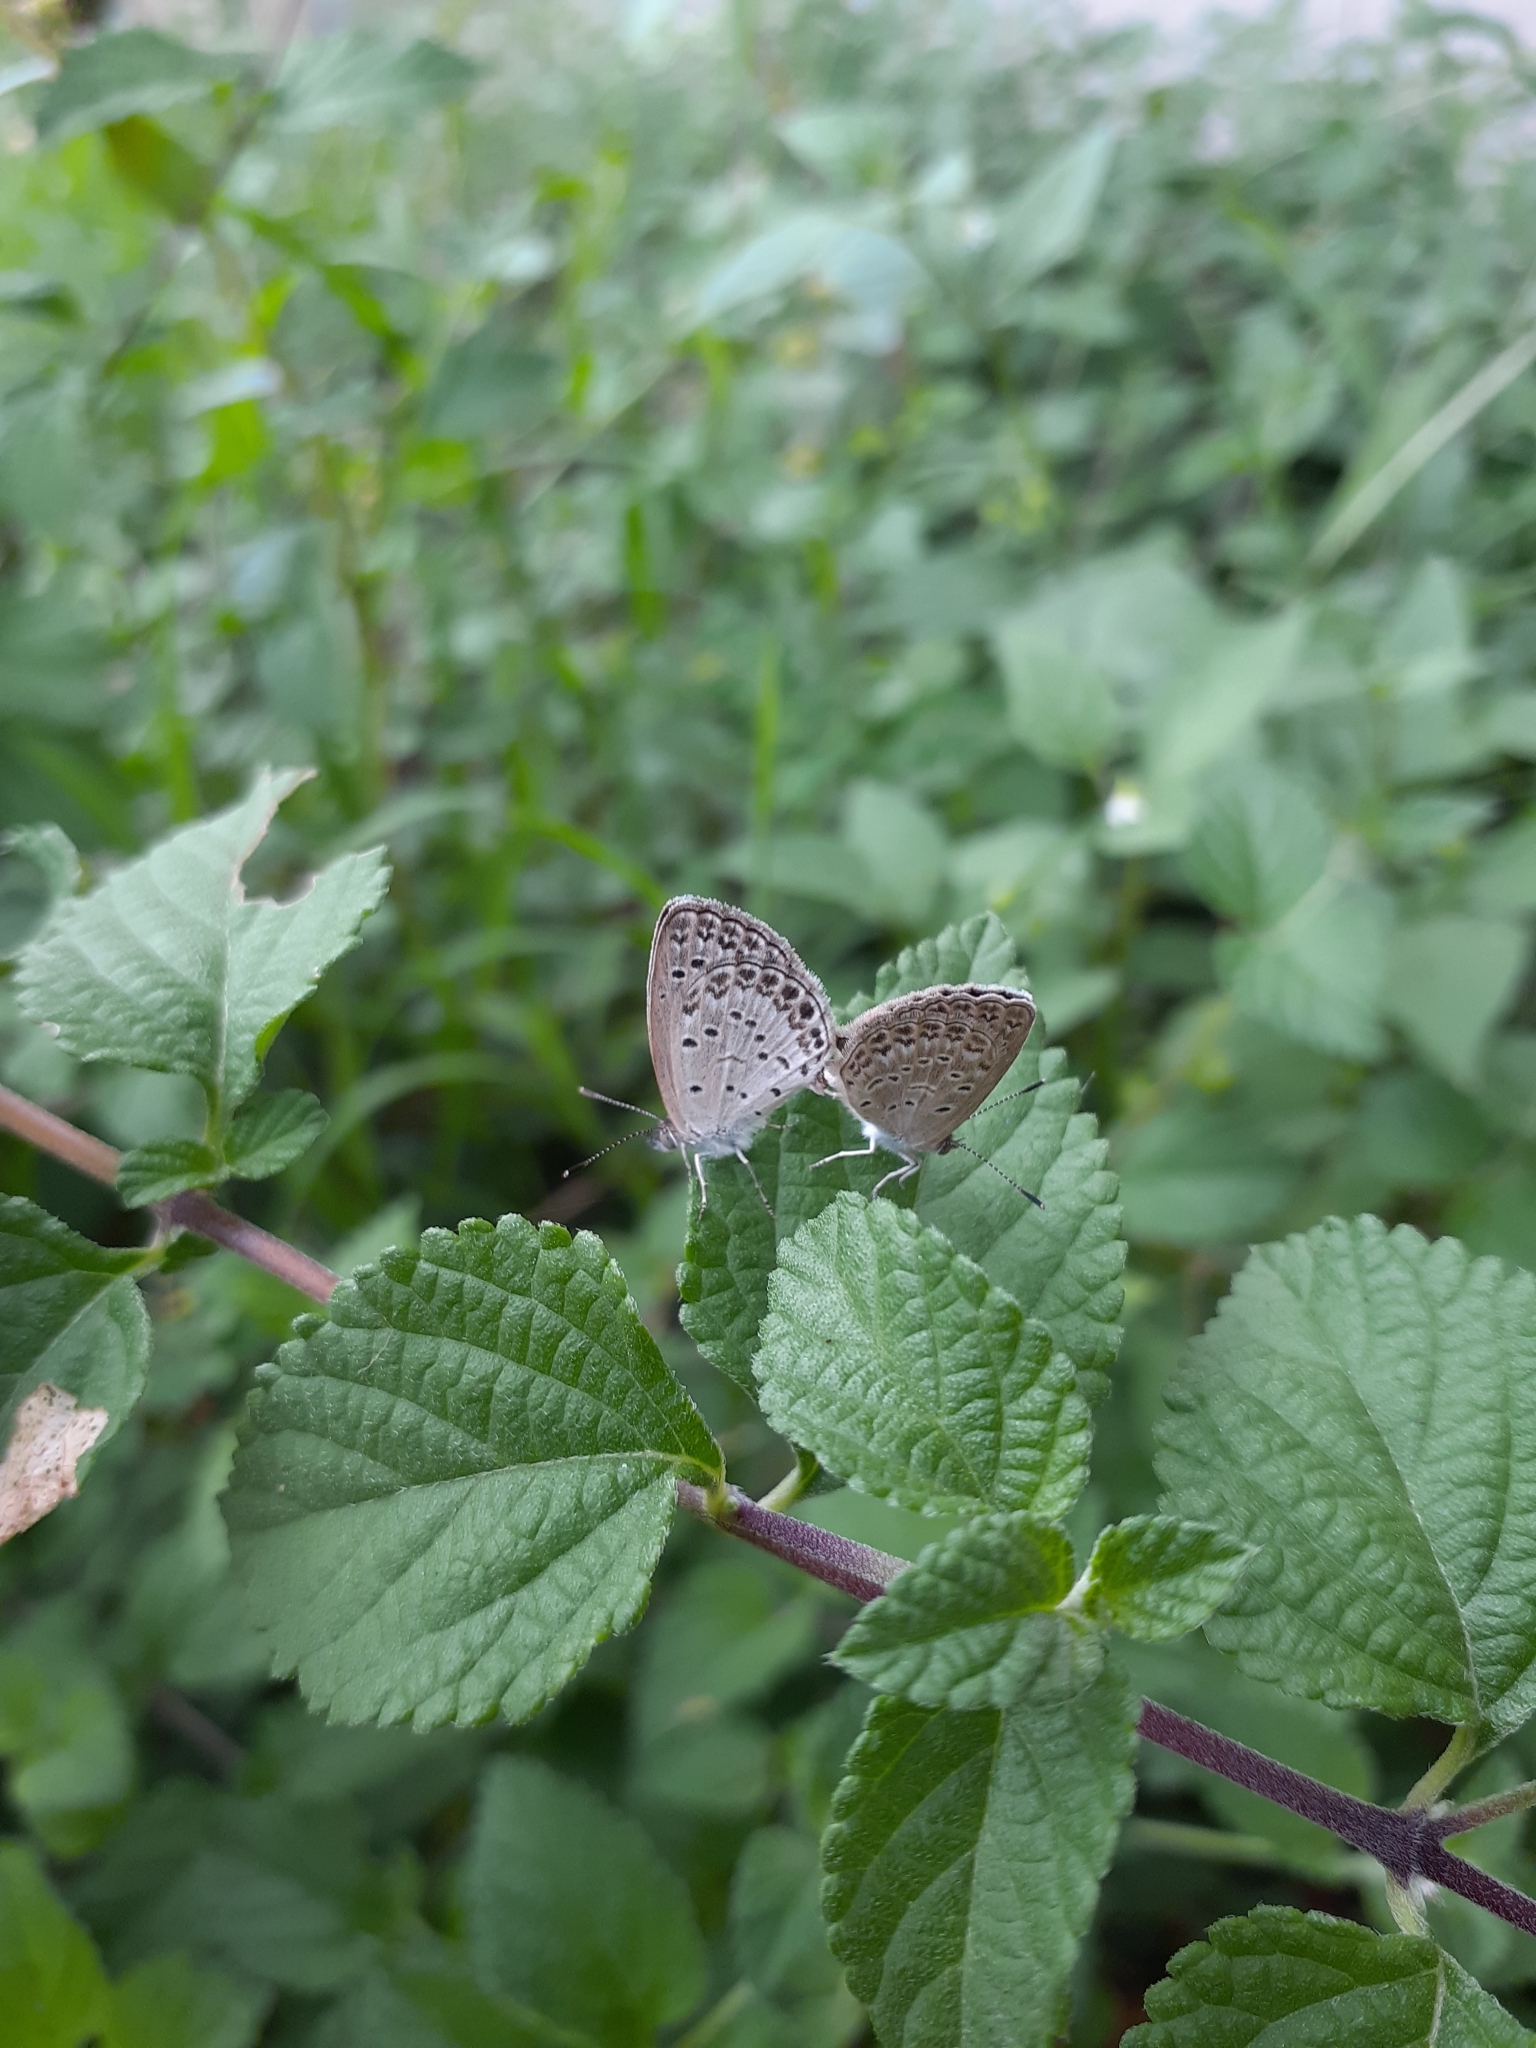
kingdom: Animalia
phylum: Arthropoda
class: Insecta
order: Lepidoptera
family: Lycaenidae
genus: Pseudozizeeria
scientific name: Pseudozizeeria maha
